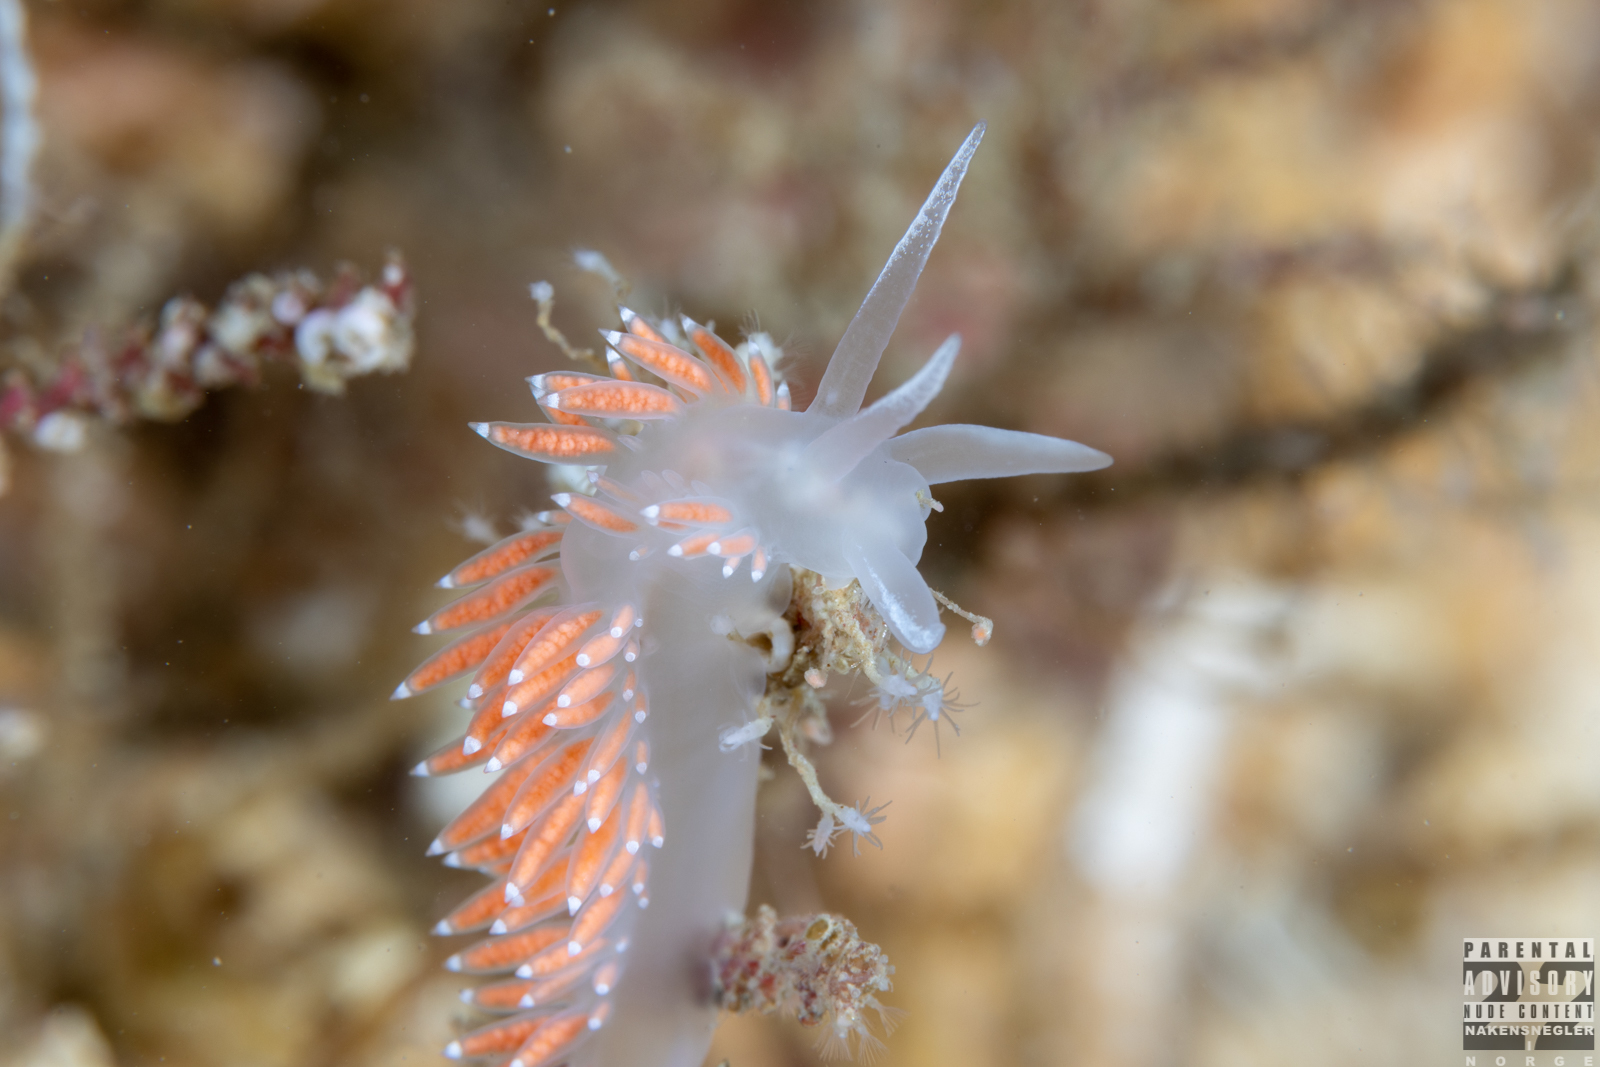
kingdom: Animalia
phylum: Mollusca
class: Gastropoda
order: Nudibranchia
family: Coryphellidae
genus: Coryphella
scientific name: Coryphella verrucosa
